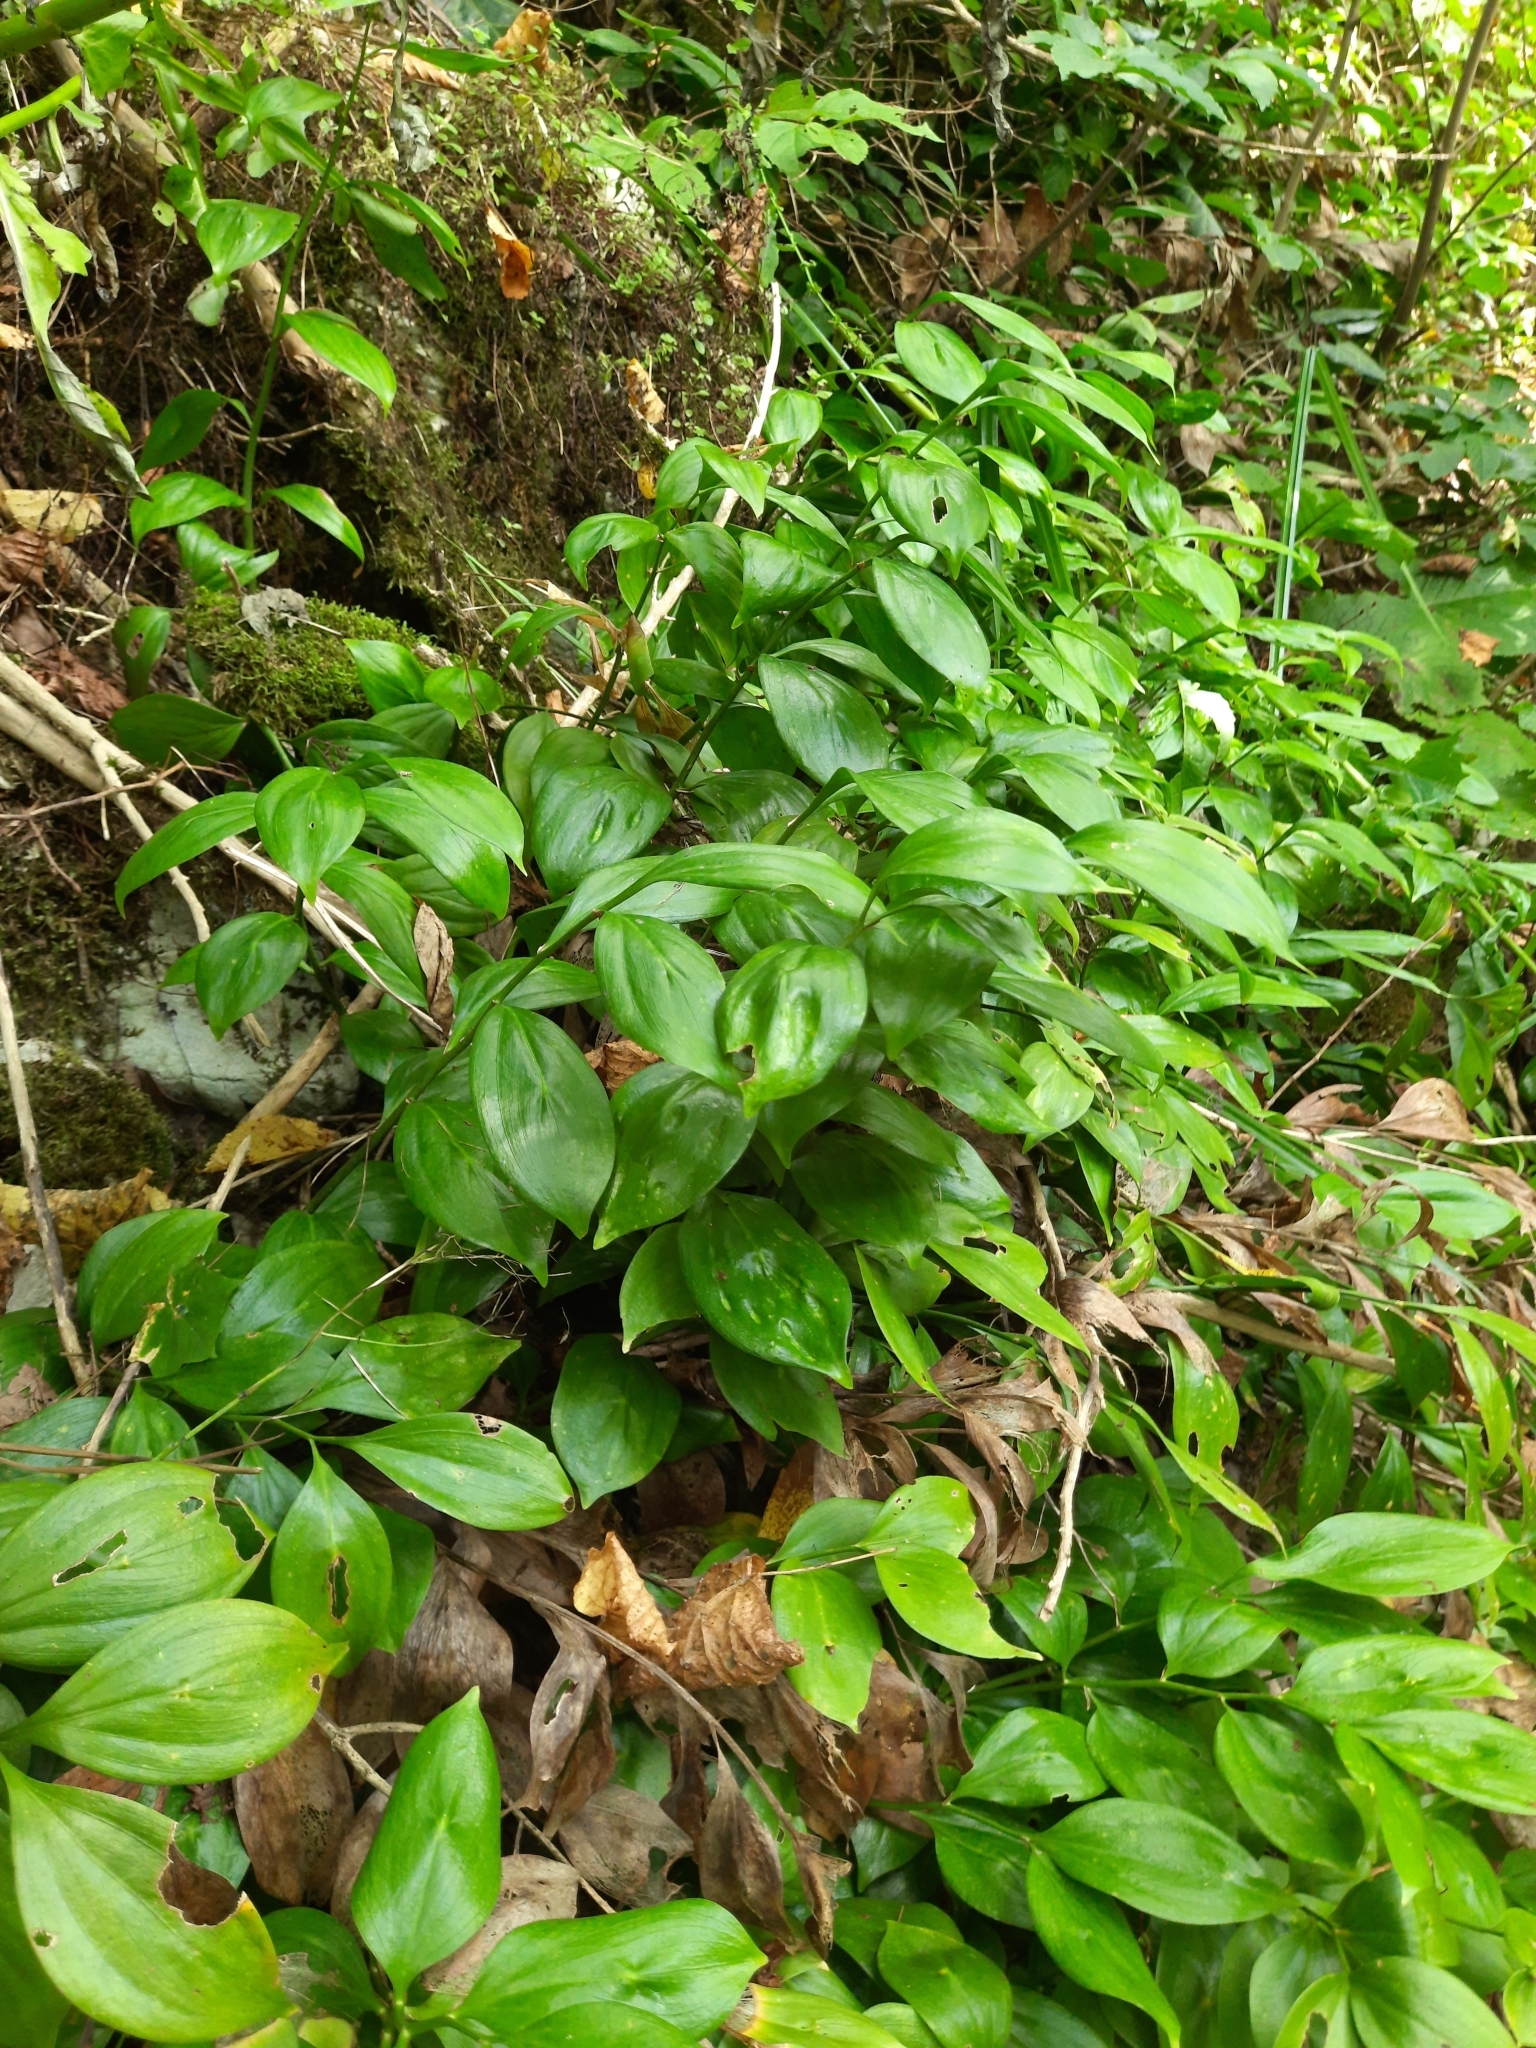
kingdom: Plantae
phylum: Tracheophyta
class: Liliopsida
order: Asparagales
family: Asparagaceae
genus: Ruscus
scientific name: Ruscus colchicus
